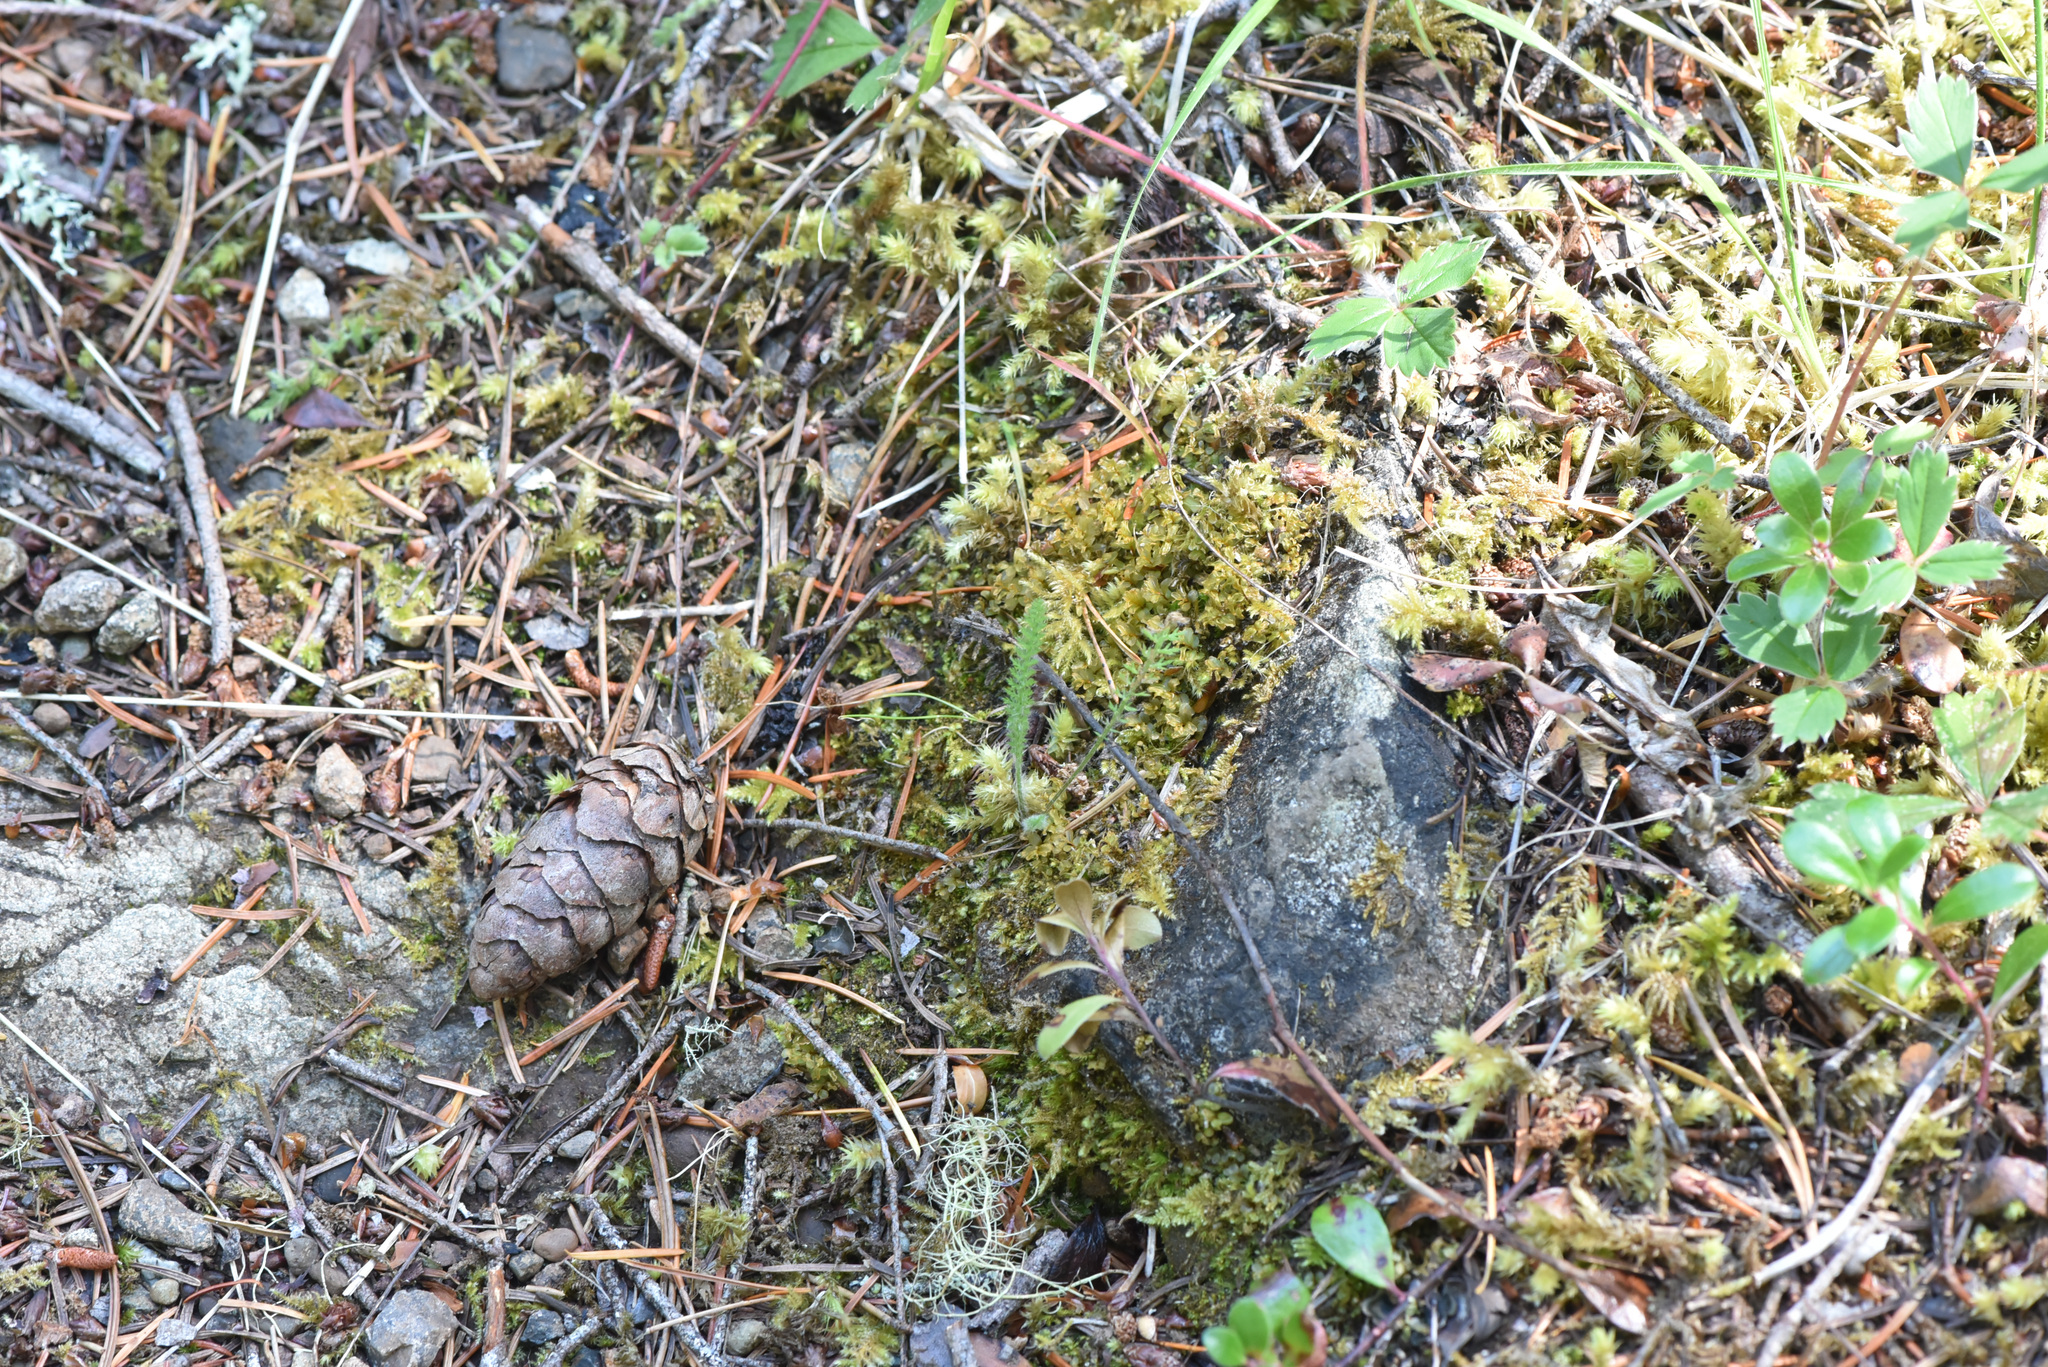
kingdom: Plantae
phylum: Tracheophyta
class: Magnoliopsida
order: Asterales
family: Asteraceae
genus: Achillea
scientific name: Achillea millefolium
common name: Yarrow
